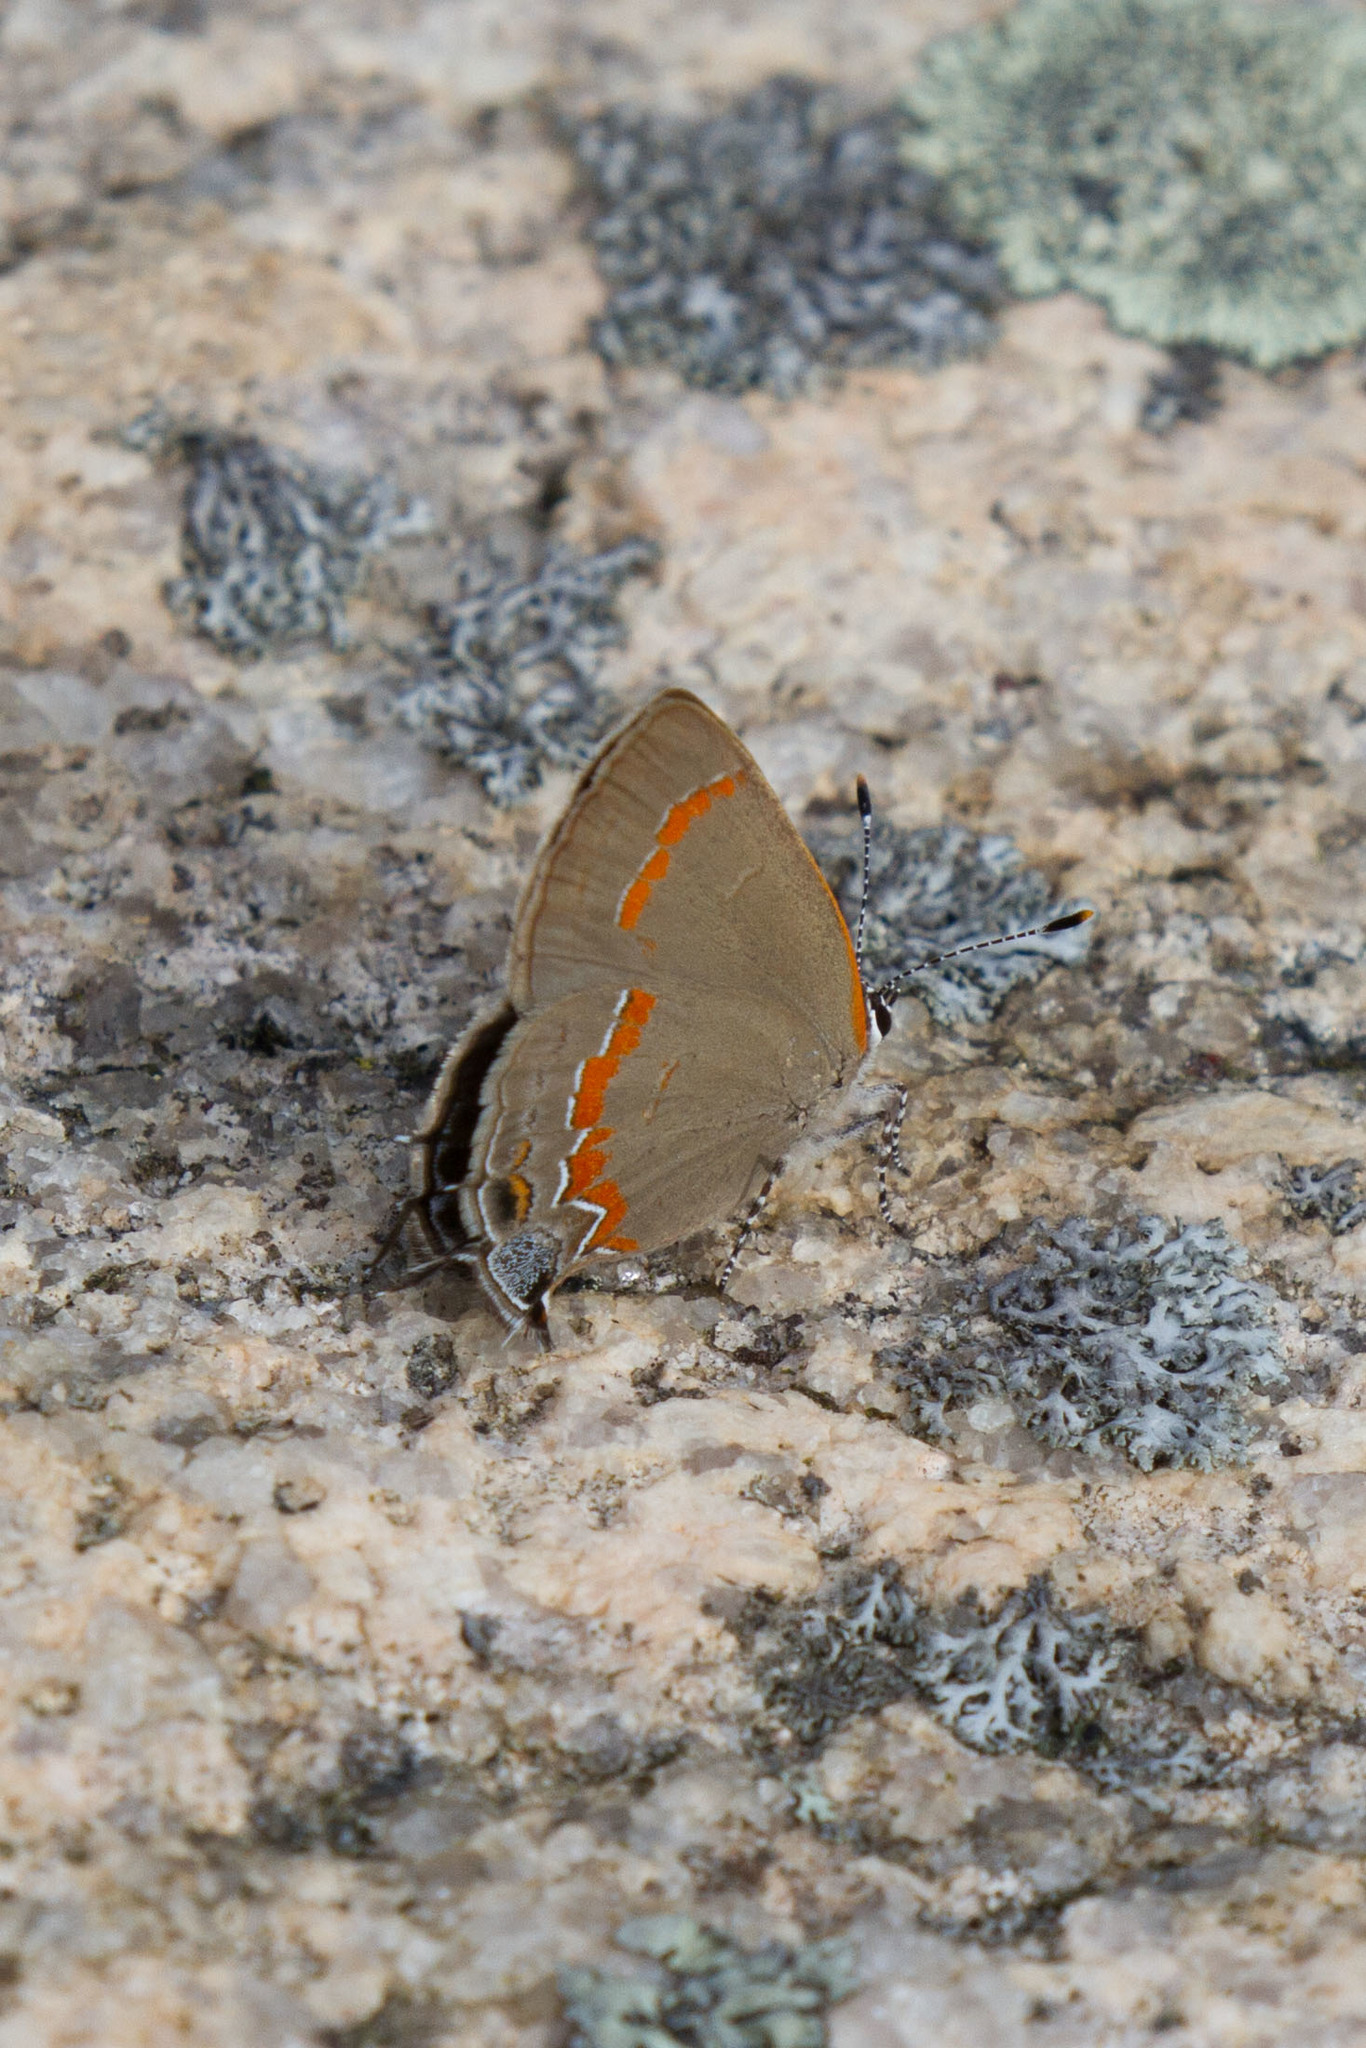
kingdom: Animalia
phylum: Arthropoda
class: Insecta
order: Lepidoptera
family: Lycaenidae
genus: Calycopis
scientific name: Calycopis cecrops
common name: Red-banded hairstreak
